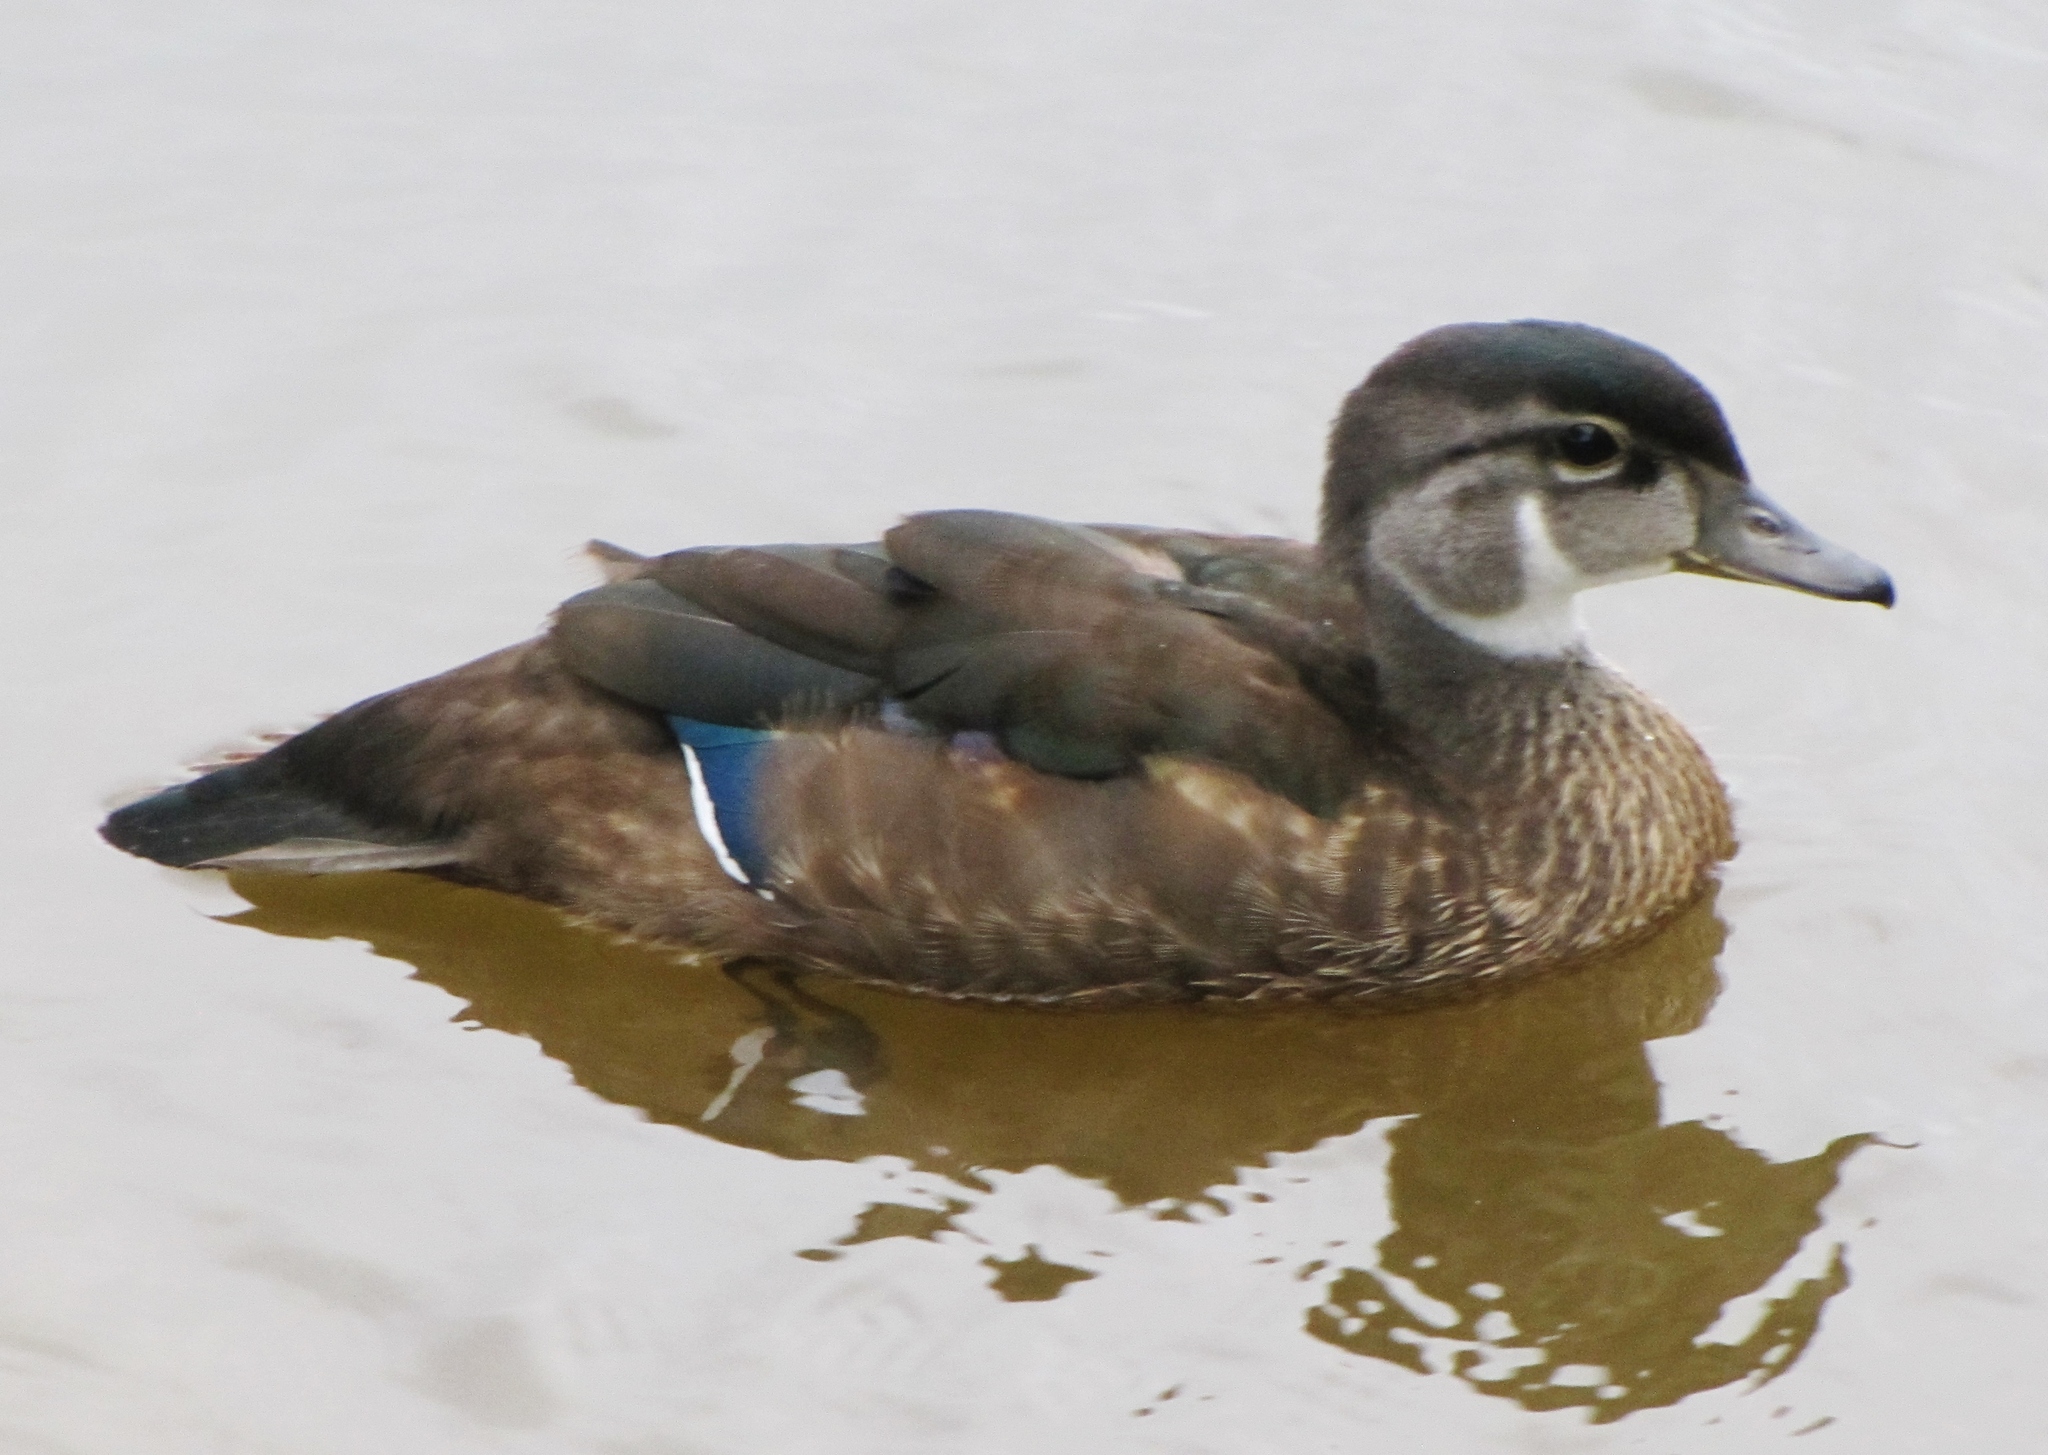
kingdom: Animalia
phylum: Chordata
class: Aves
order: Anseriformes
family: Anatidae
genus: Aix
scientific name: Aix sponsa
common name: Wood duck
